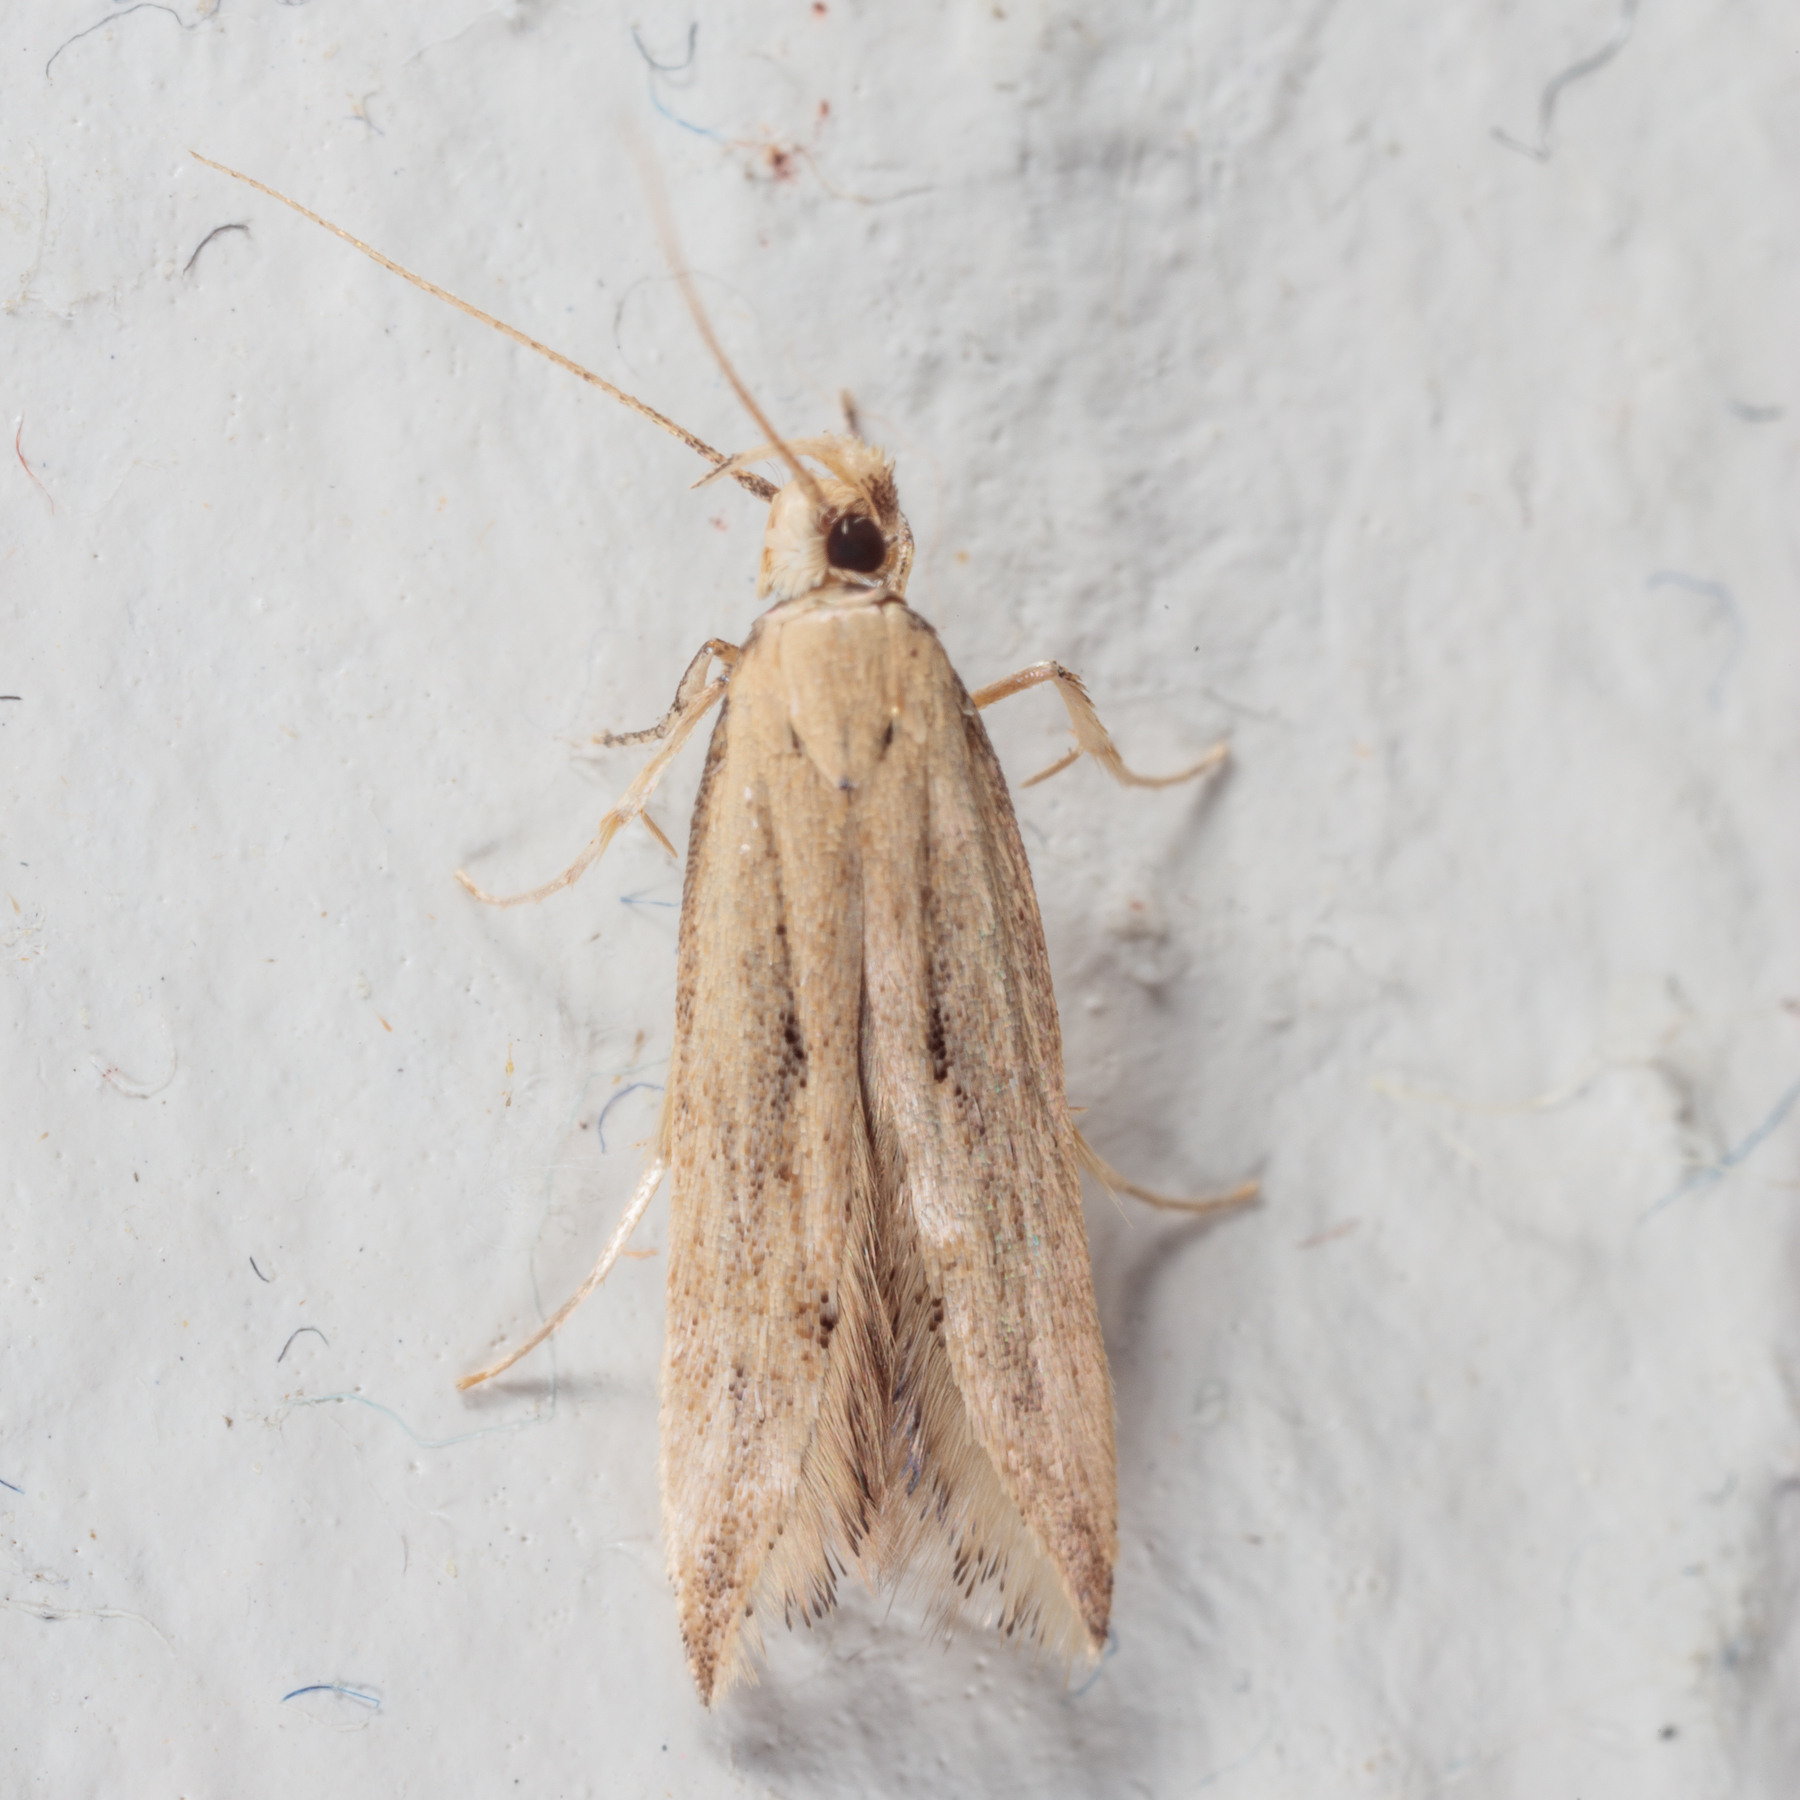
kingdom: Animalia
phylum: Arthropoda
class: Insecta
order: Lepidoptera
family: Gelechiidae
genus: Sitotroga
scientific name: Sitotroga cerealella
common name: Angoumois grain moth
